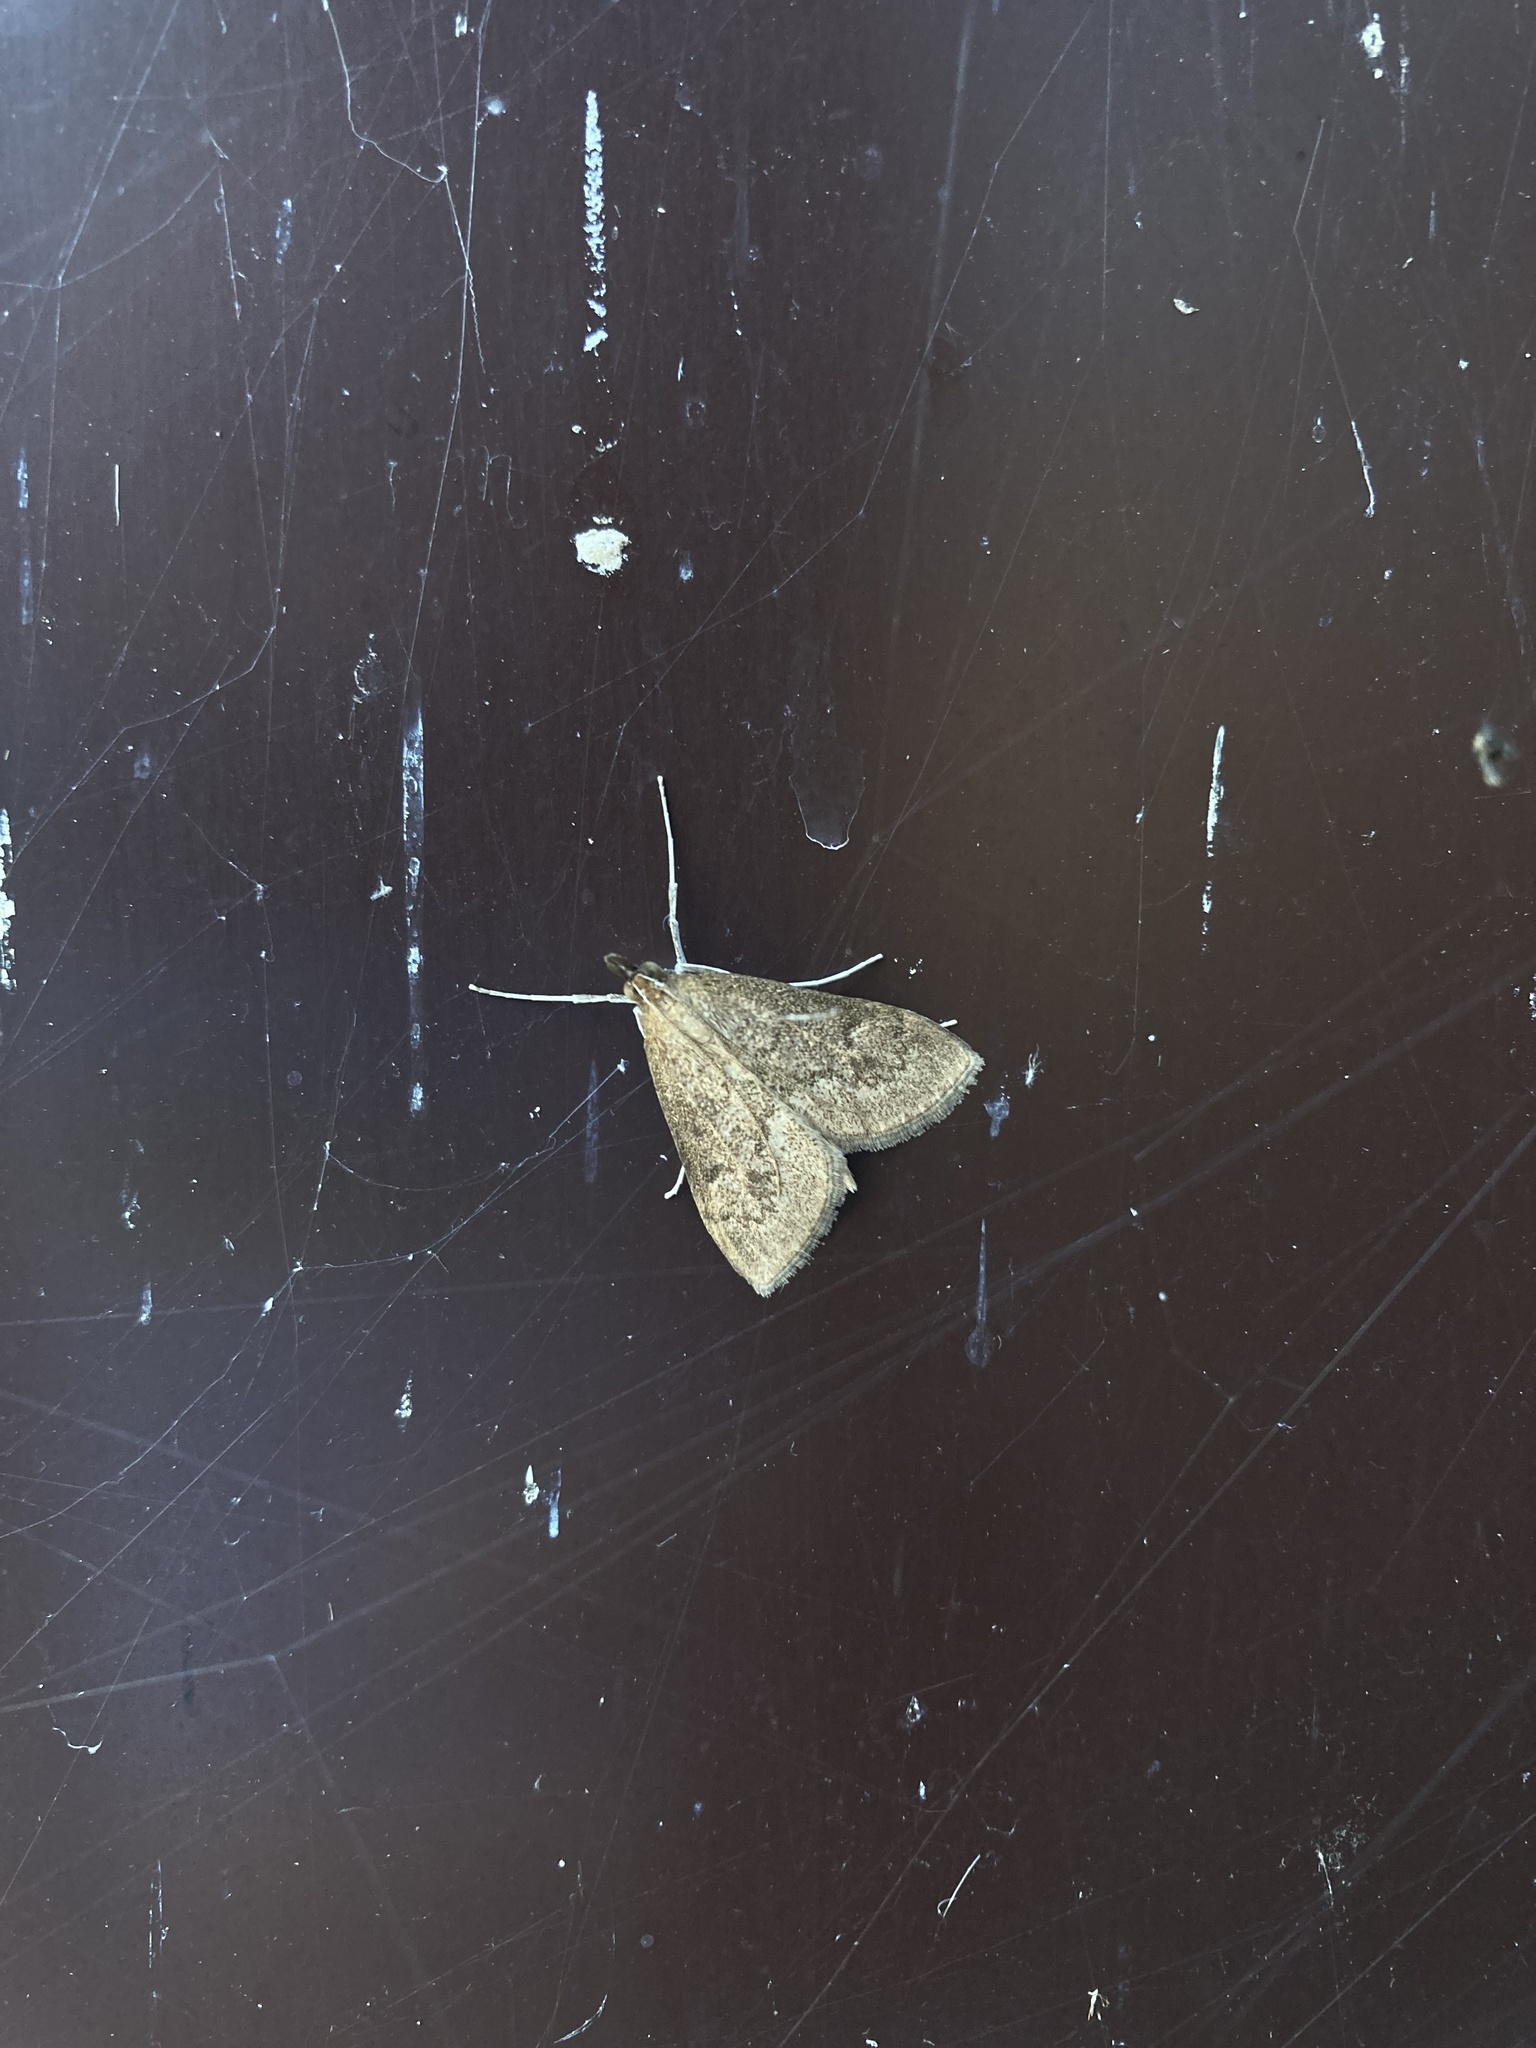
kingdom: Animalia
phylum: Arthropoda
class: Insecta
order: Lepidoptera
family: Crambidae
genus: Saucrobotys
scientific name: Saucrobotys futilalis
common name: Dogbane saucrobotys moth
